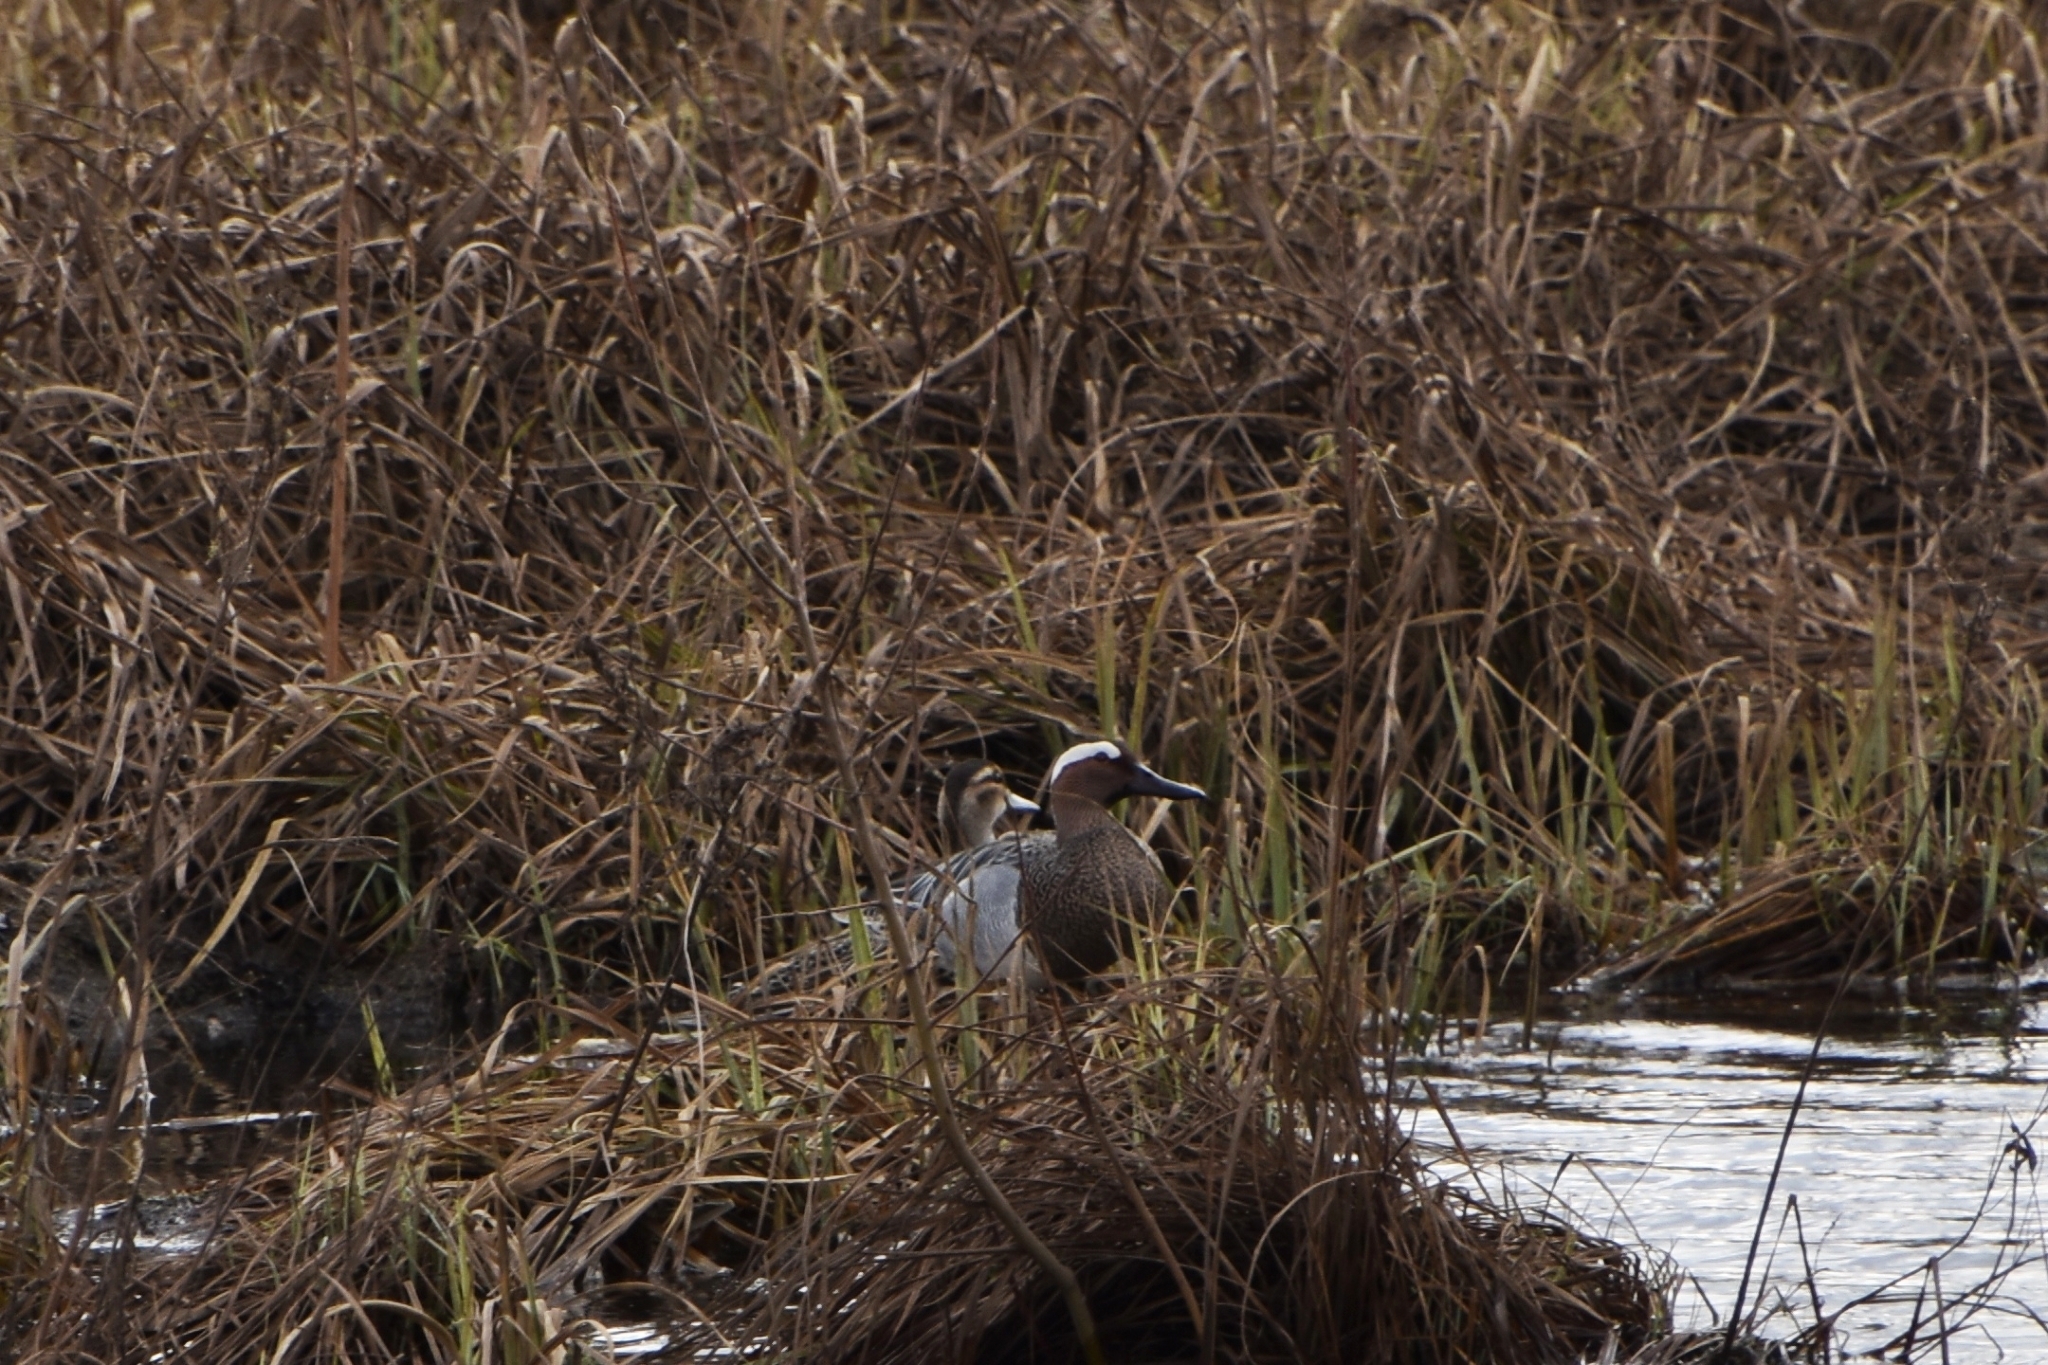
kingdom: Animalia
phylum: Chordata
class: Aves
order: Anseriformes
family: Anatidae
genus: Spatula
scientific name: Spatula querquedula
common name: Garganey
